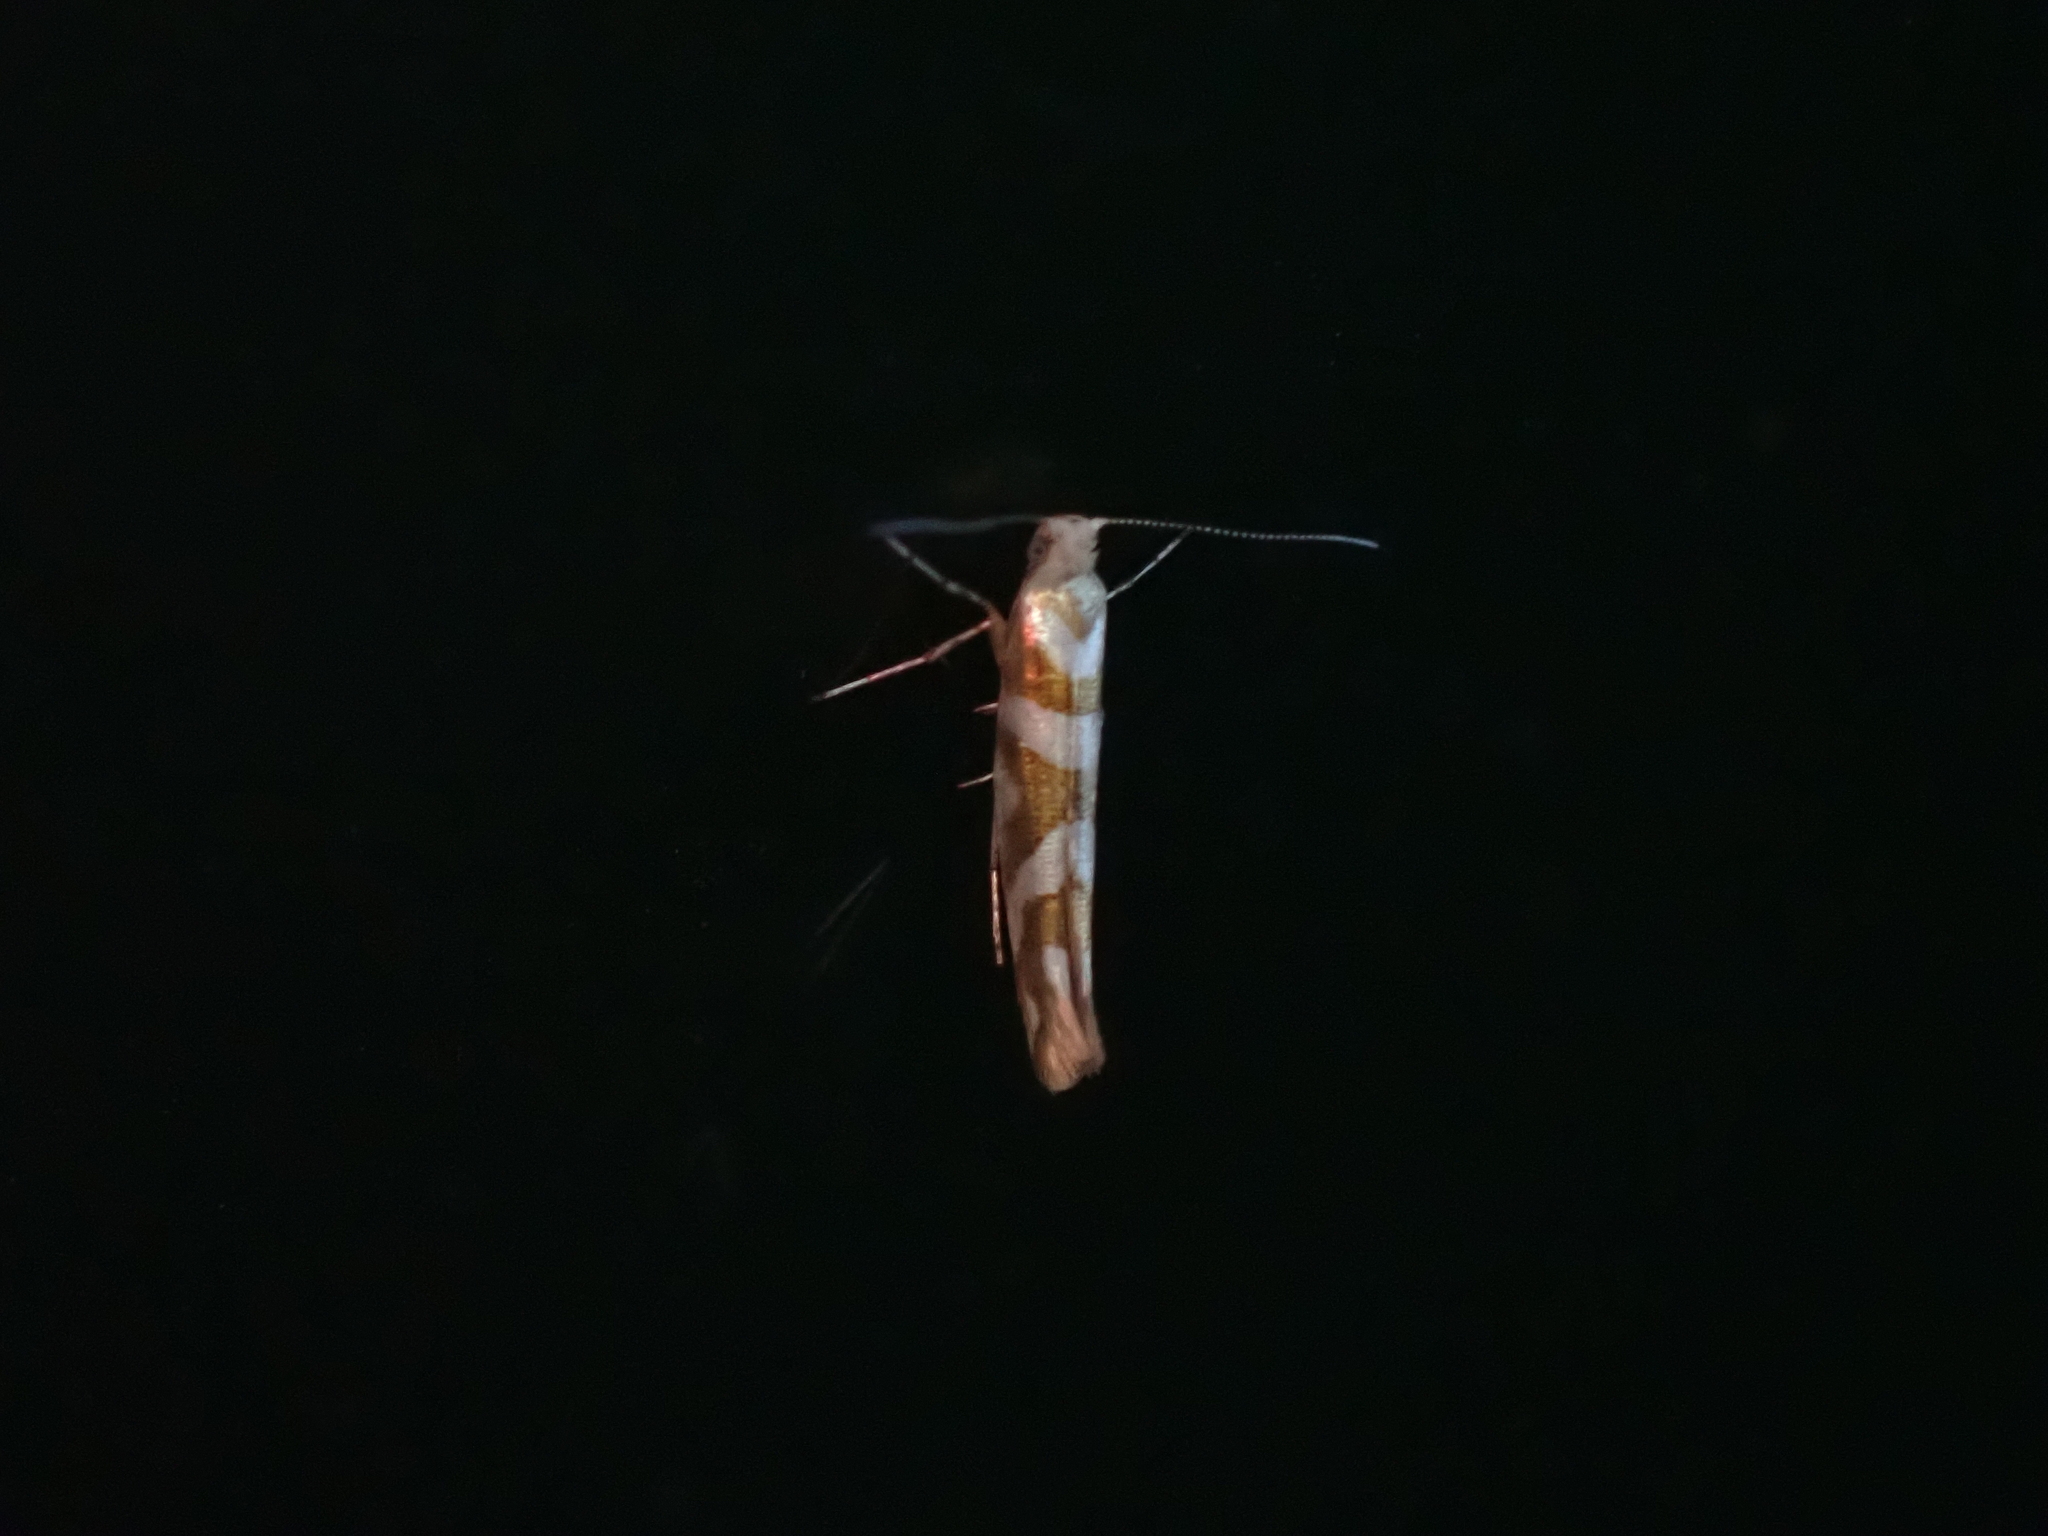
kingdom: Animalia
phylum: Arthropoda
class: Insecta
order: Lepidoptera
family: Argyresthiidae
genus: Argyresthia
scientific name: Argyresthia goedartella
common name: Golden argent
